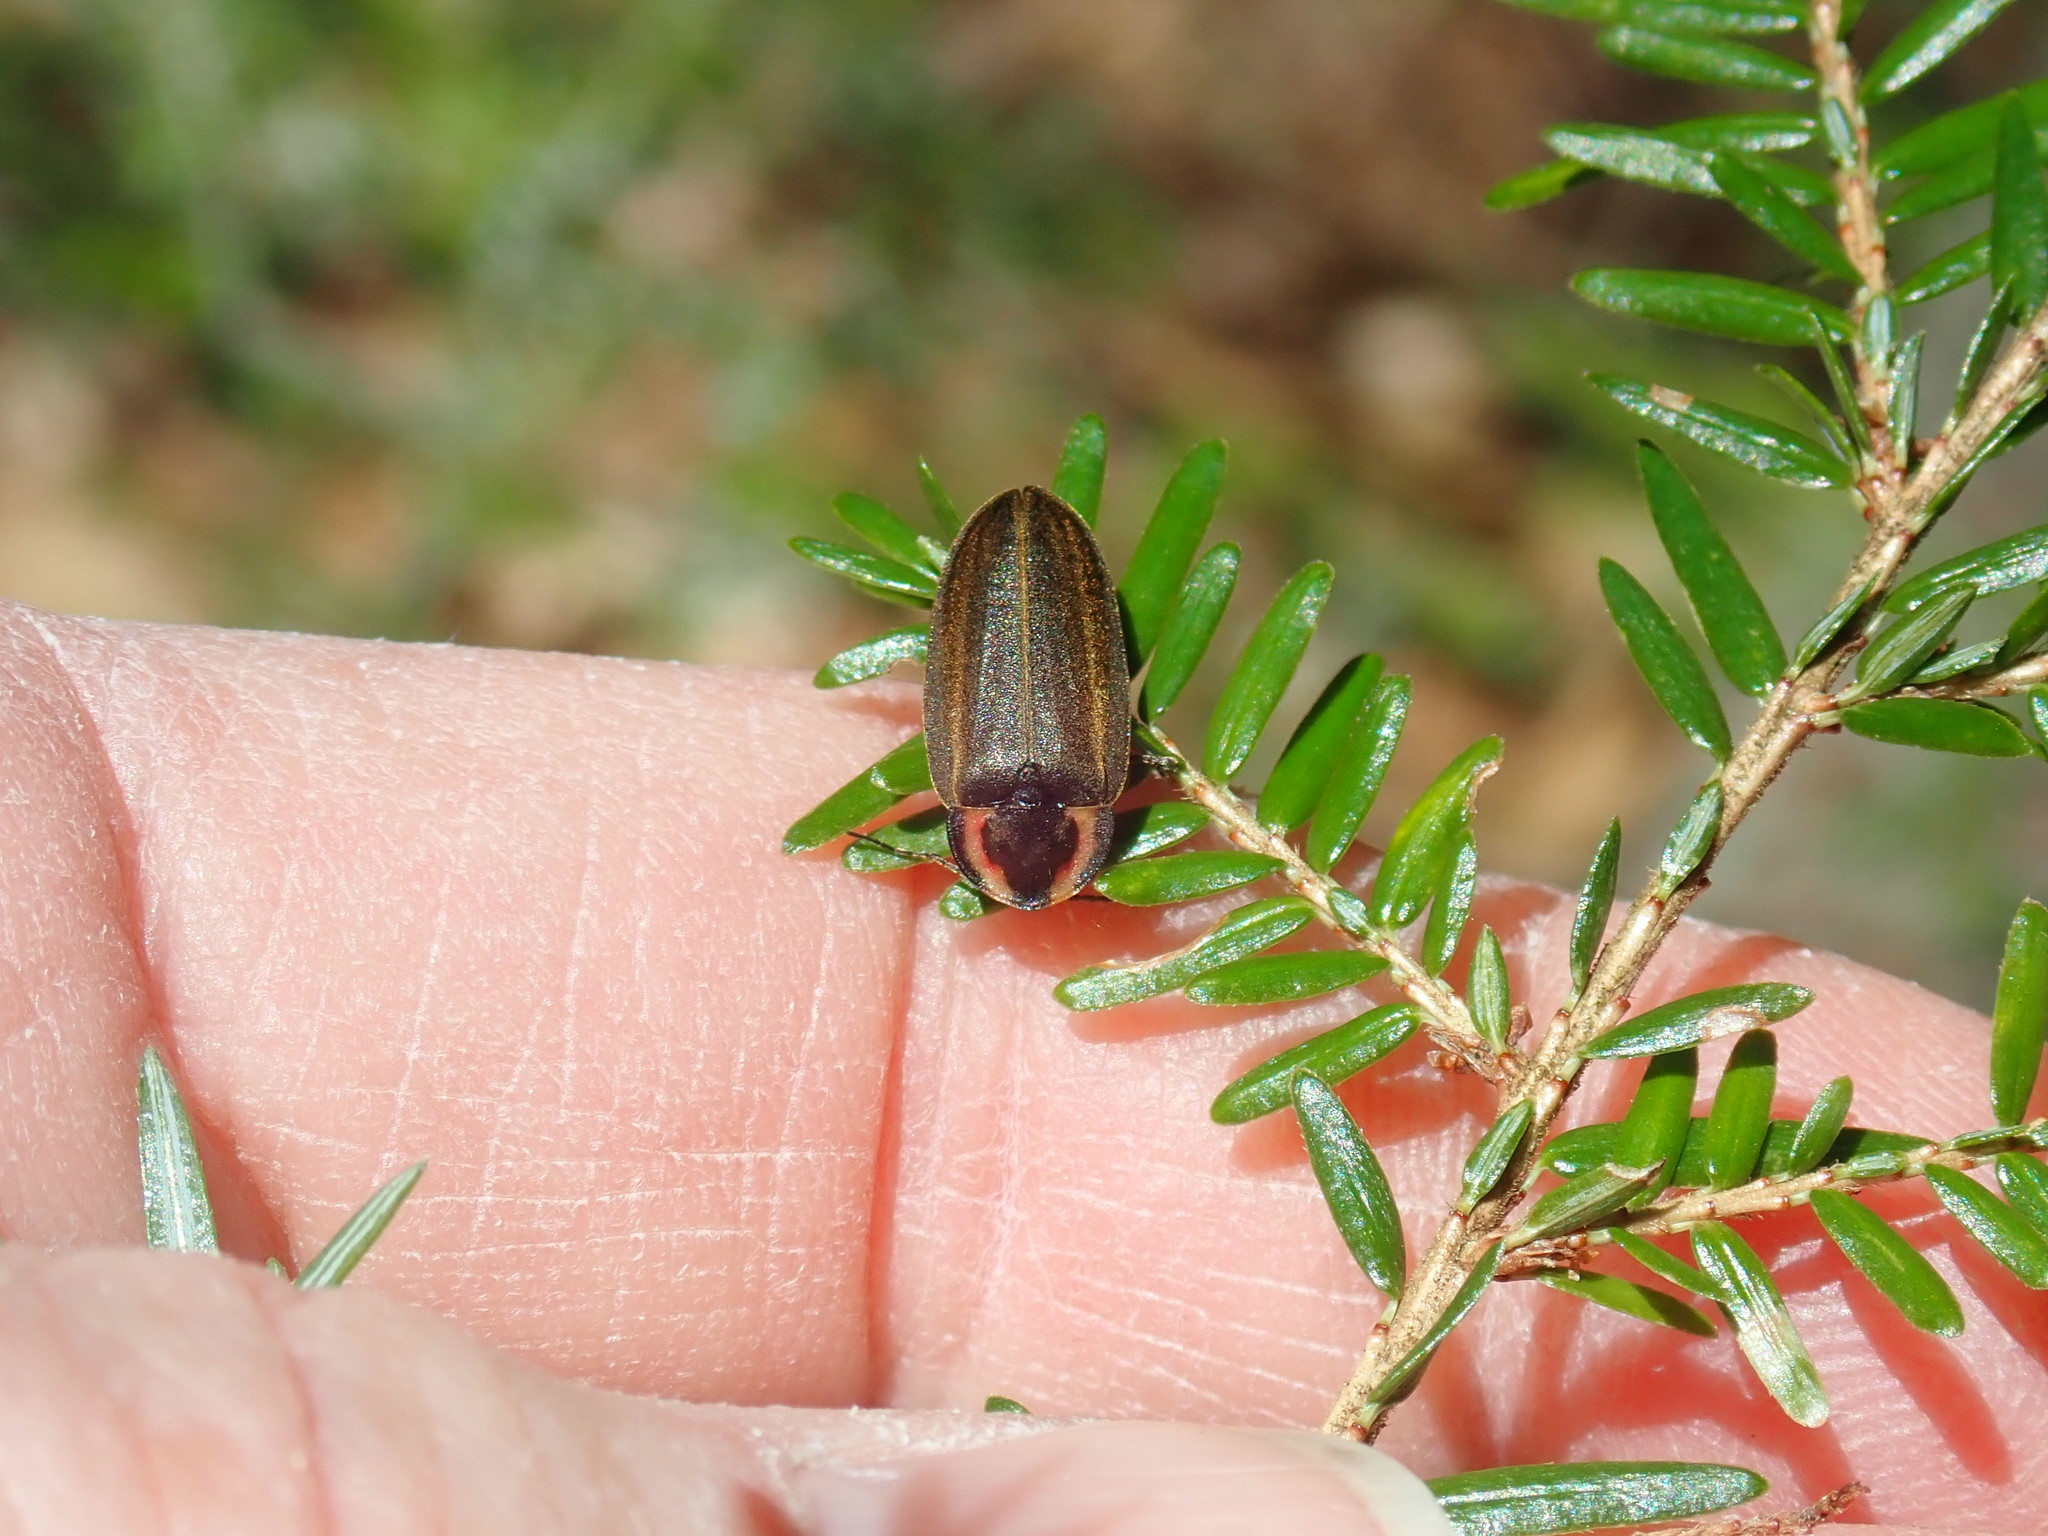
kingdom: Animalia
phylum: Arthropoda
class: Insecta
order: Coleoptera
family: Lampyridae
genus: Photinus
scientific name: Photinus corrusca
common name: Winter firefly
